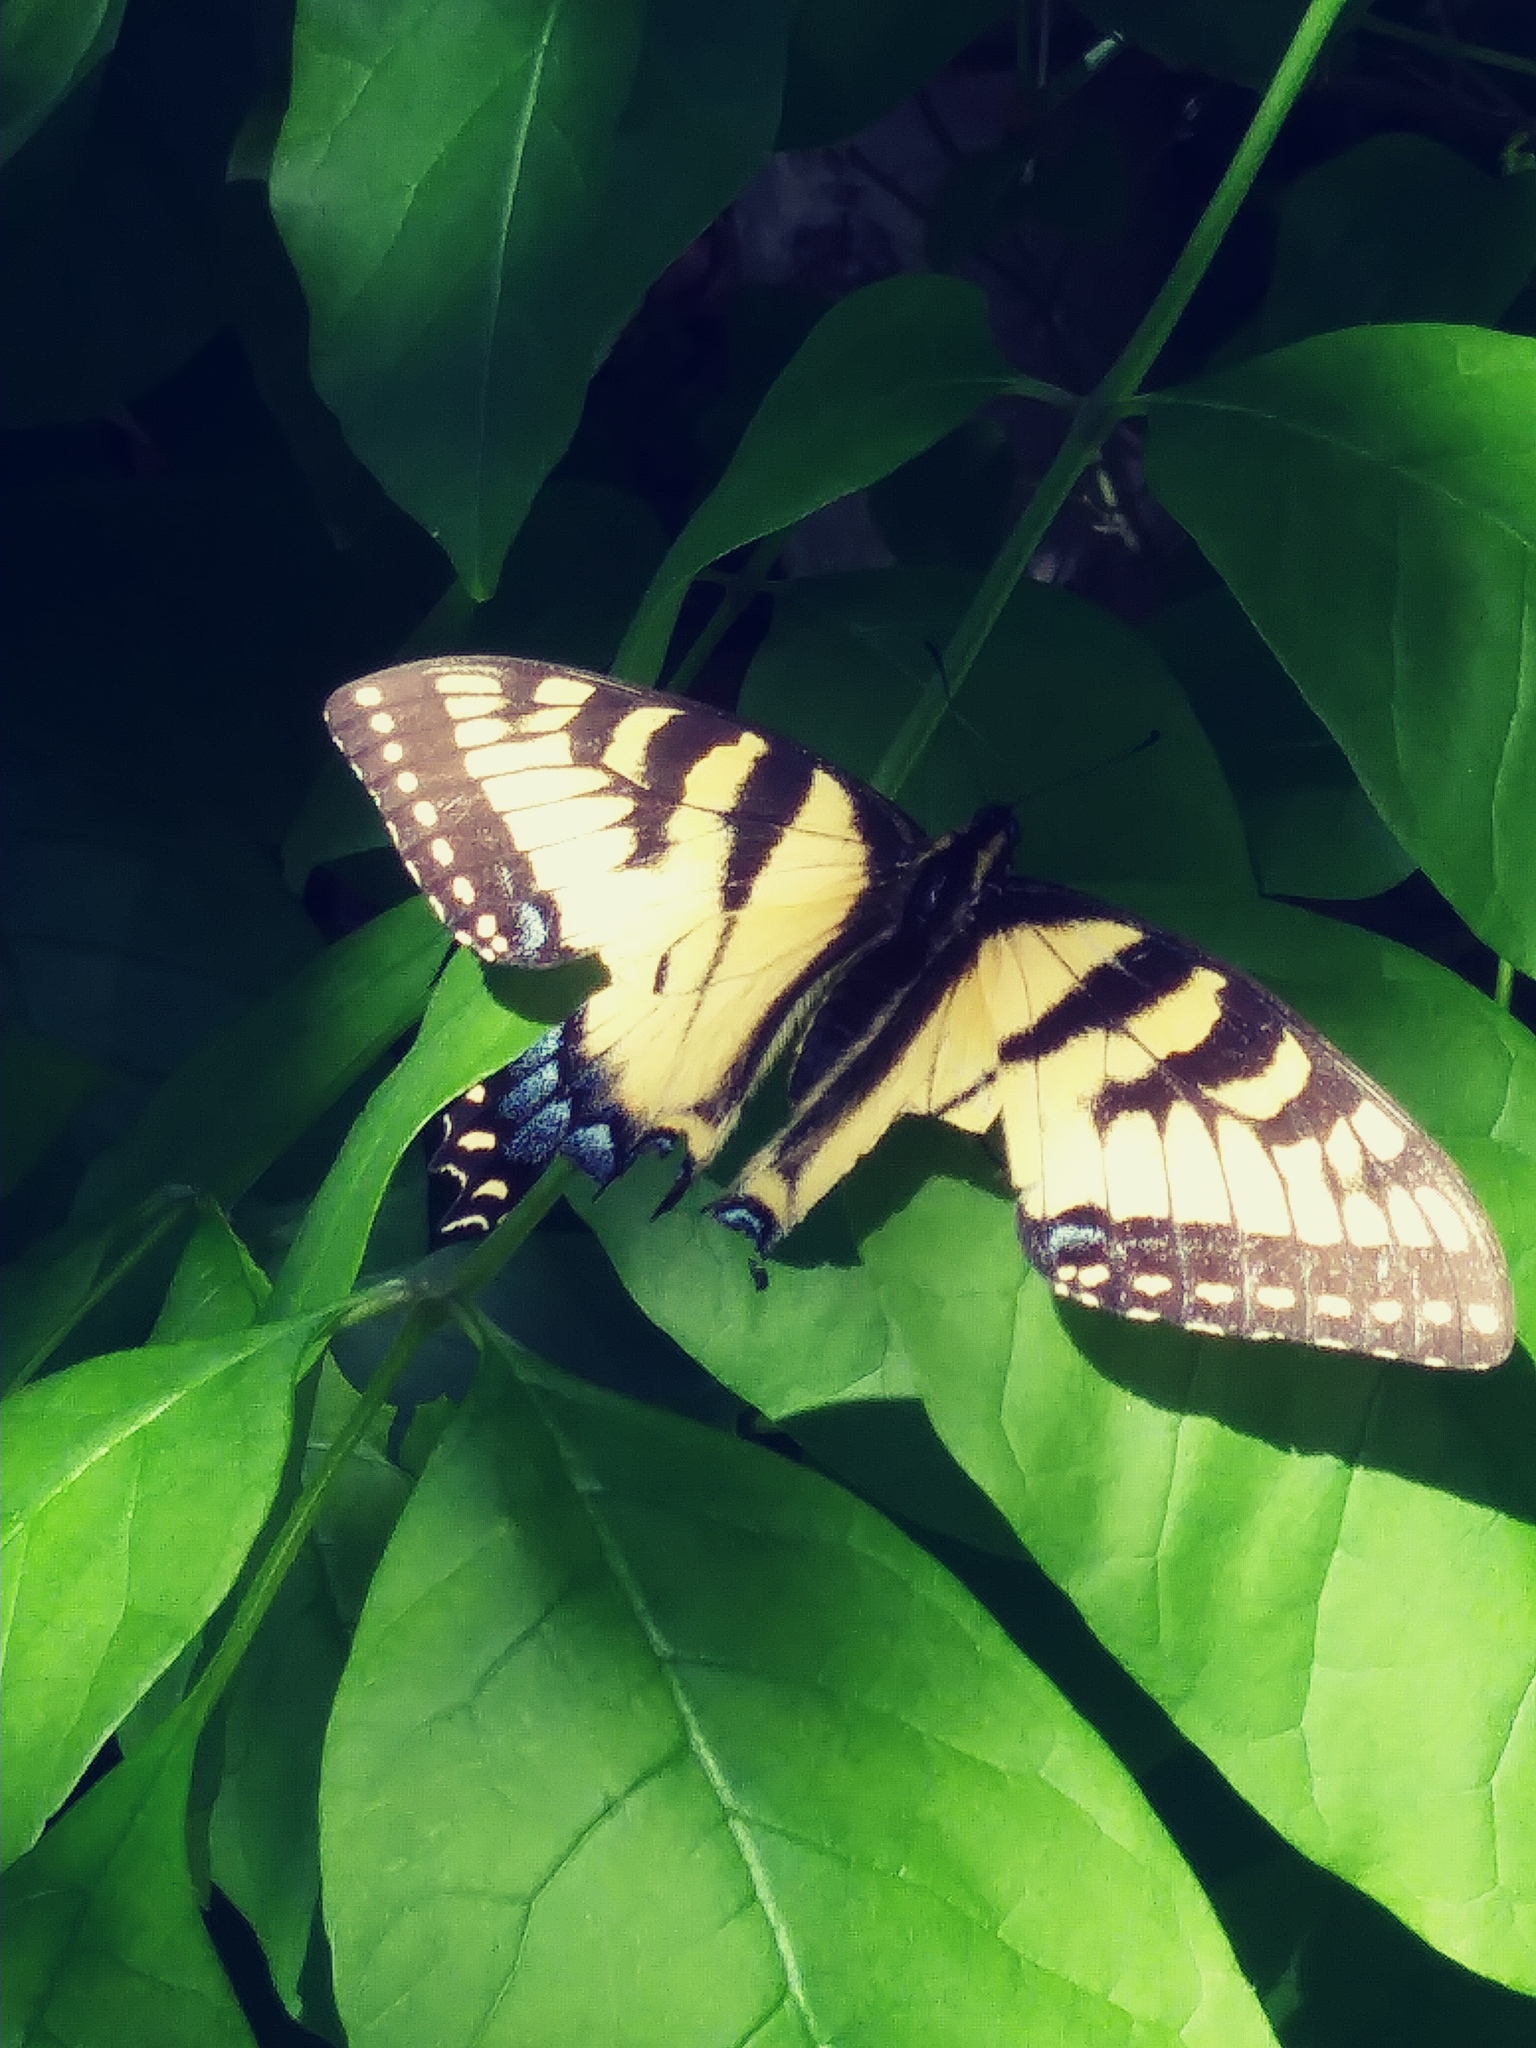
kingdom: Animalia
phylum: Arthropoda
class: Insecta
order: Lepidoptera
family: Papilionidae
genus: Papilio
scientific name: Papilio glaucus
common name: Tiger swallowtail
